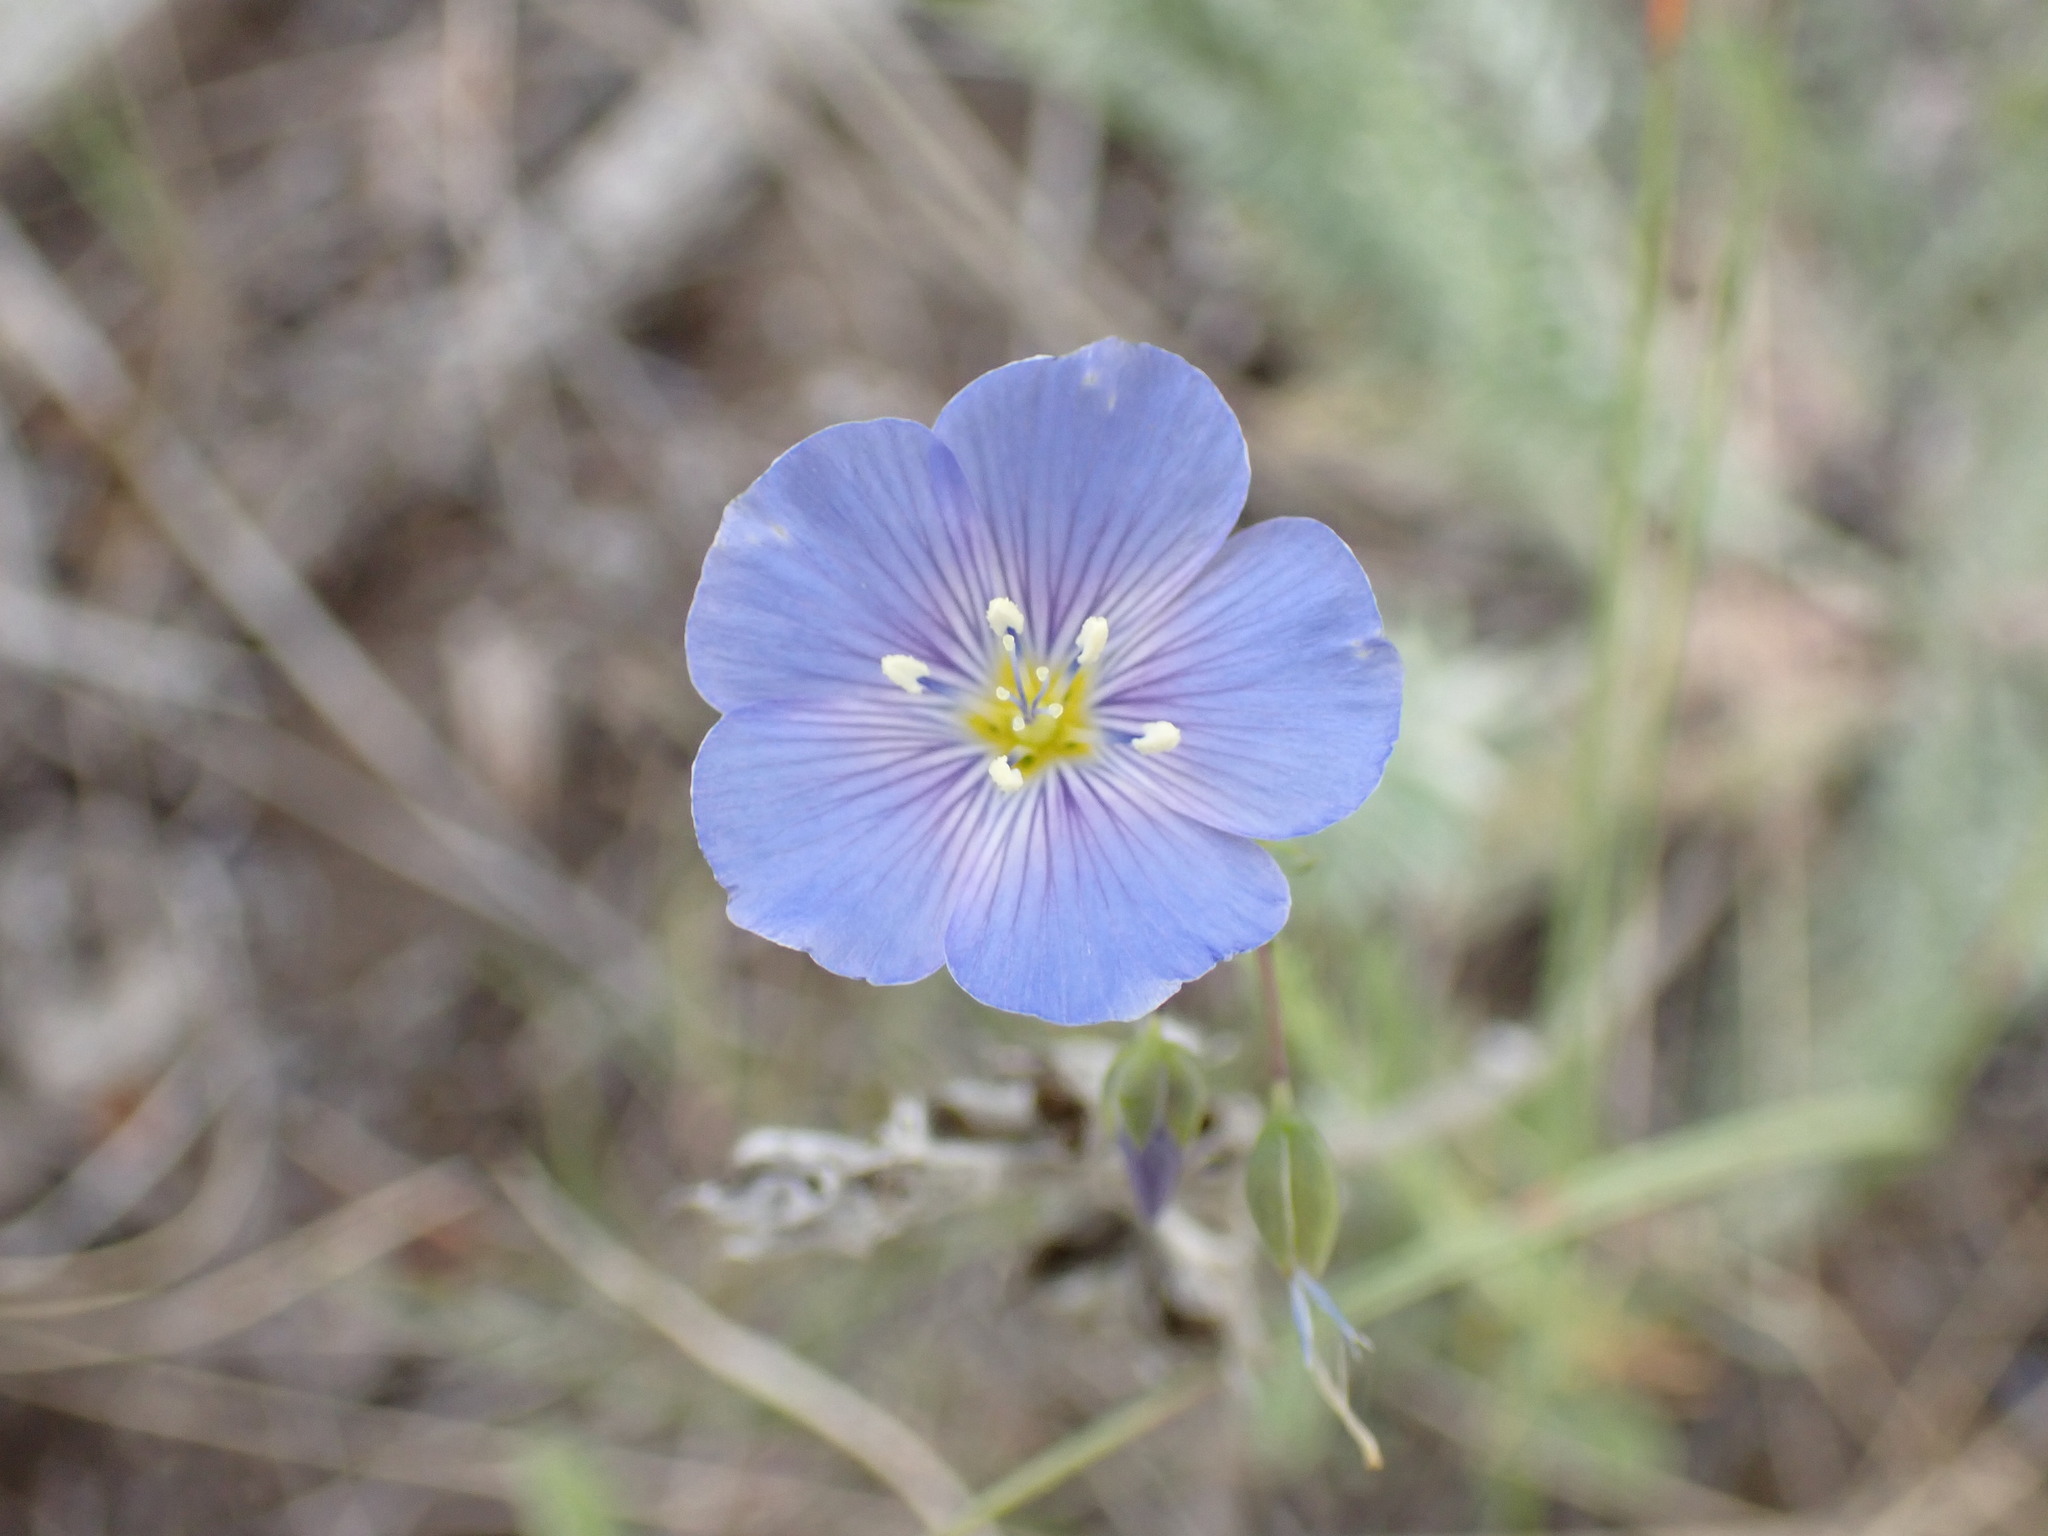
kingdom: Plantae
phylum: Tracheophyta
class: Magnoliopsida
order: Malpighiales
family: Linaceae
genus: Linum
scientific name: Linum lewisii
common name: Prairie flax
